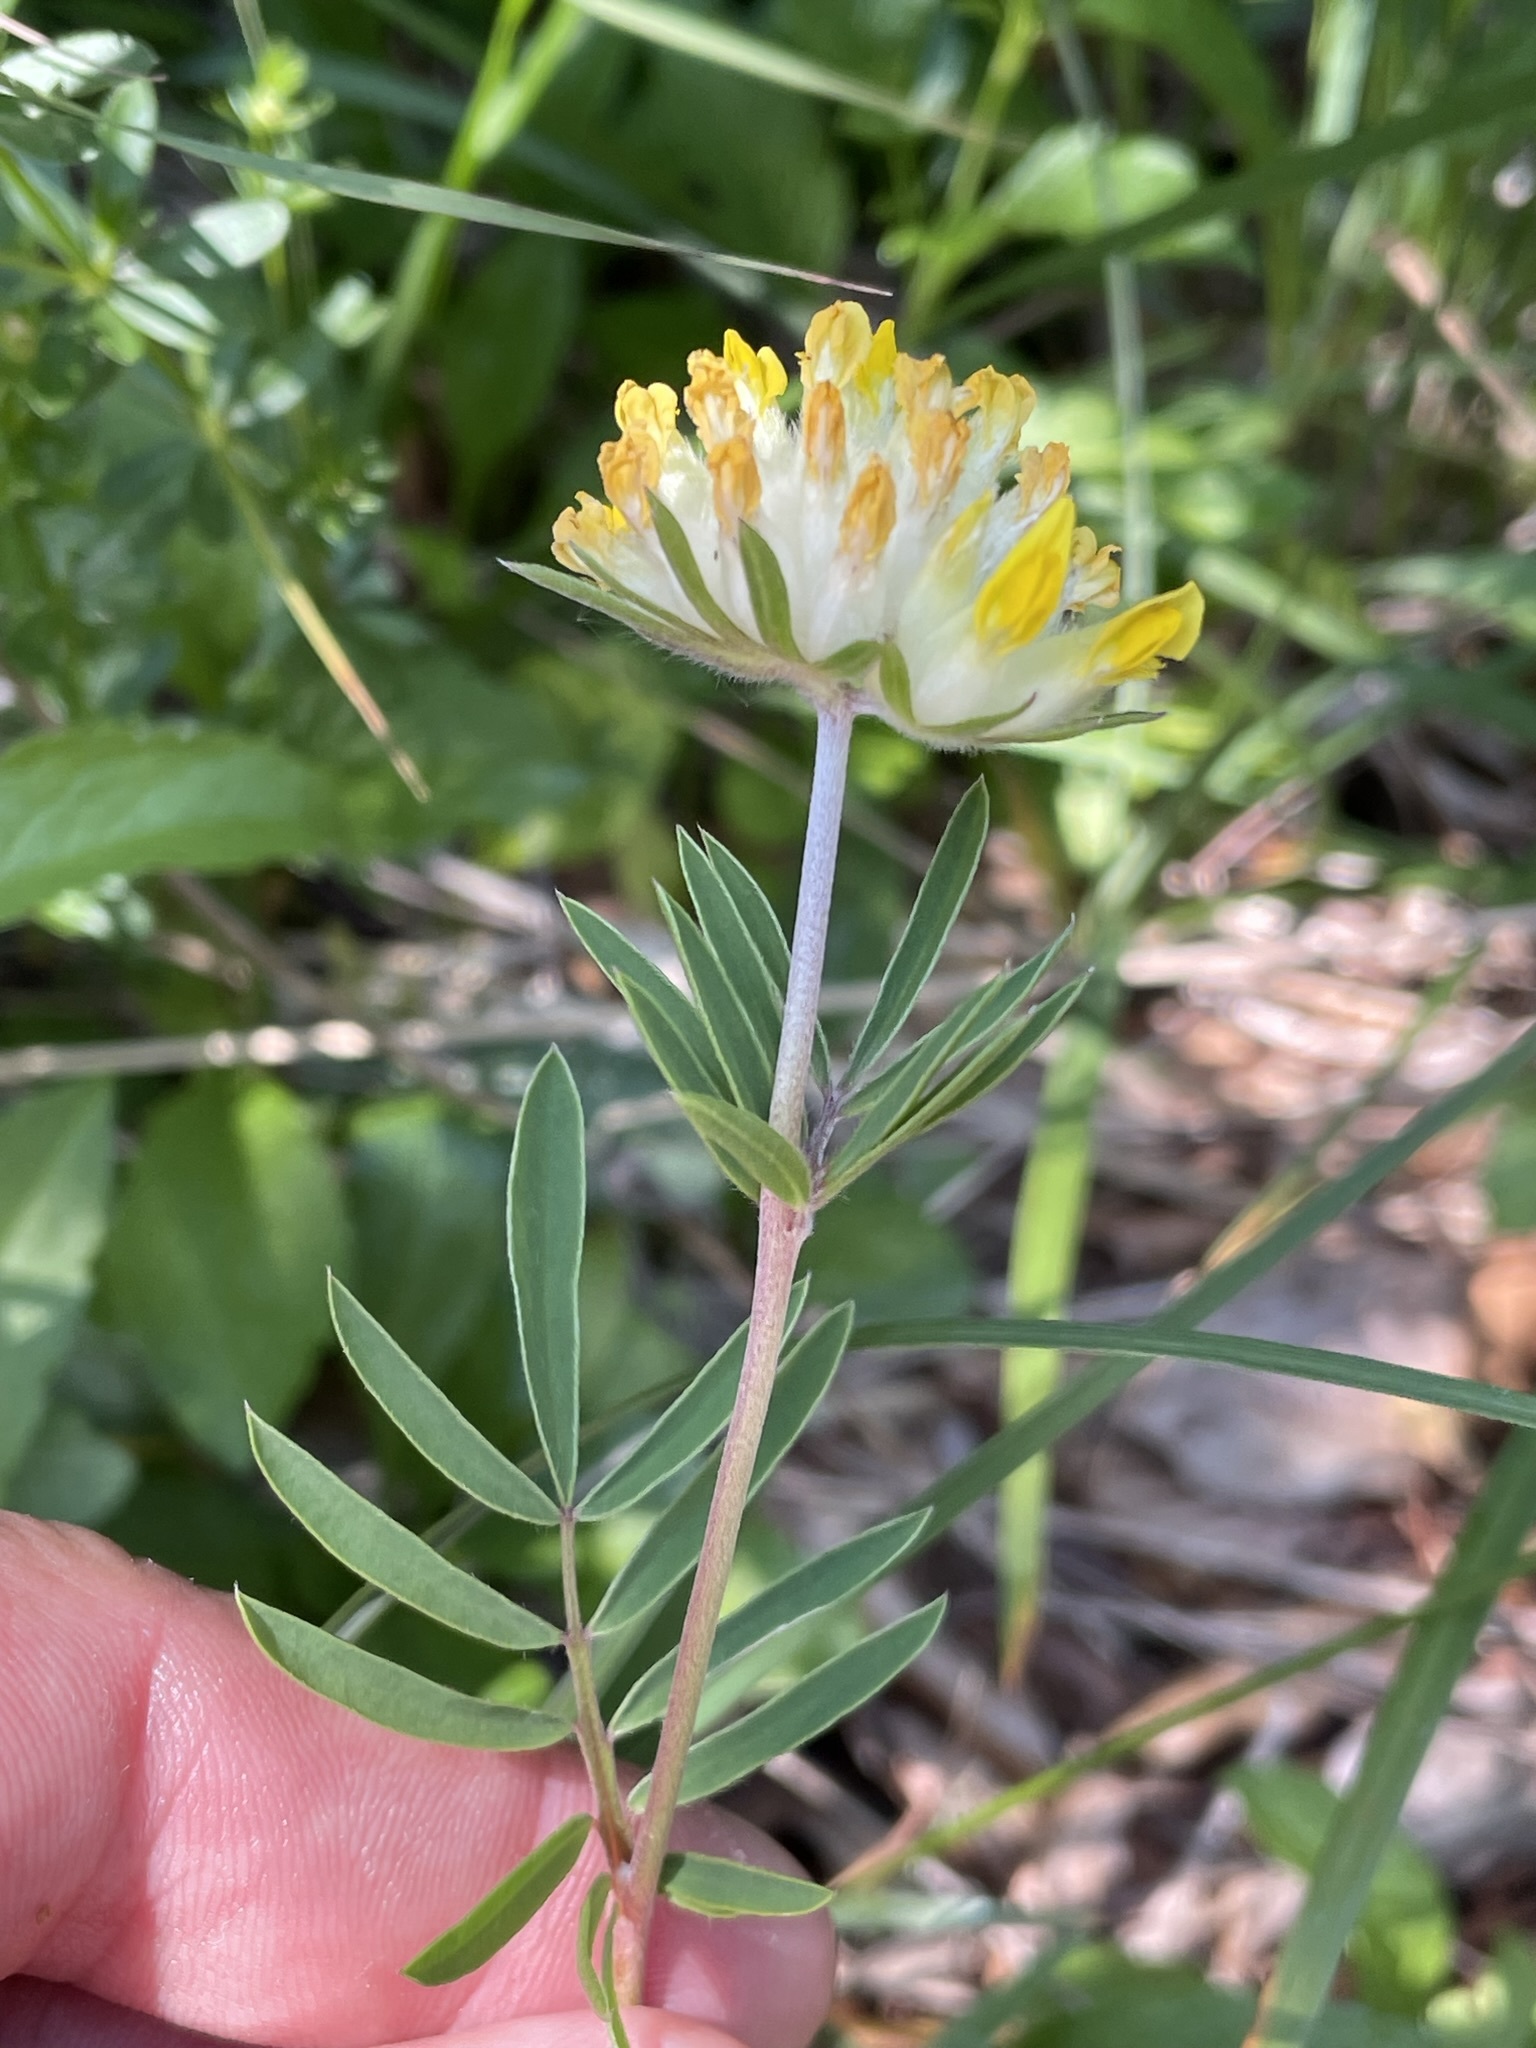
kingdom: Plantae
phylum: Tracheophyta
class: Magnoliopsida
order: Fabales
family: Fabaceae
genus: Anthyllis
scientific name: Anthyllis vulneraria
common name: Kidney vetch
